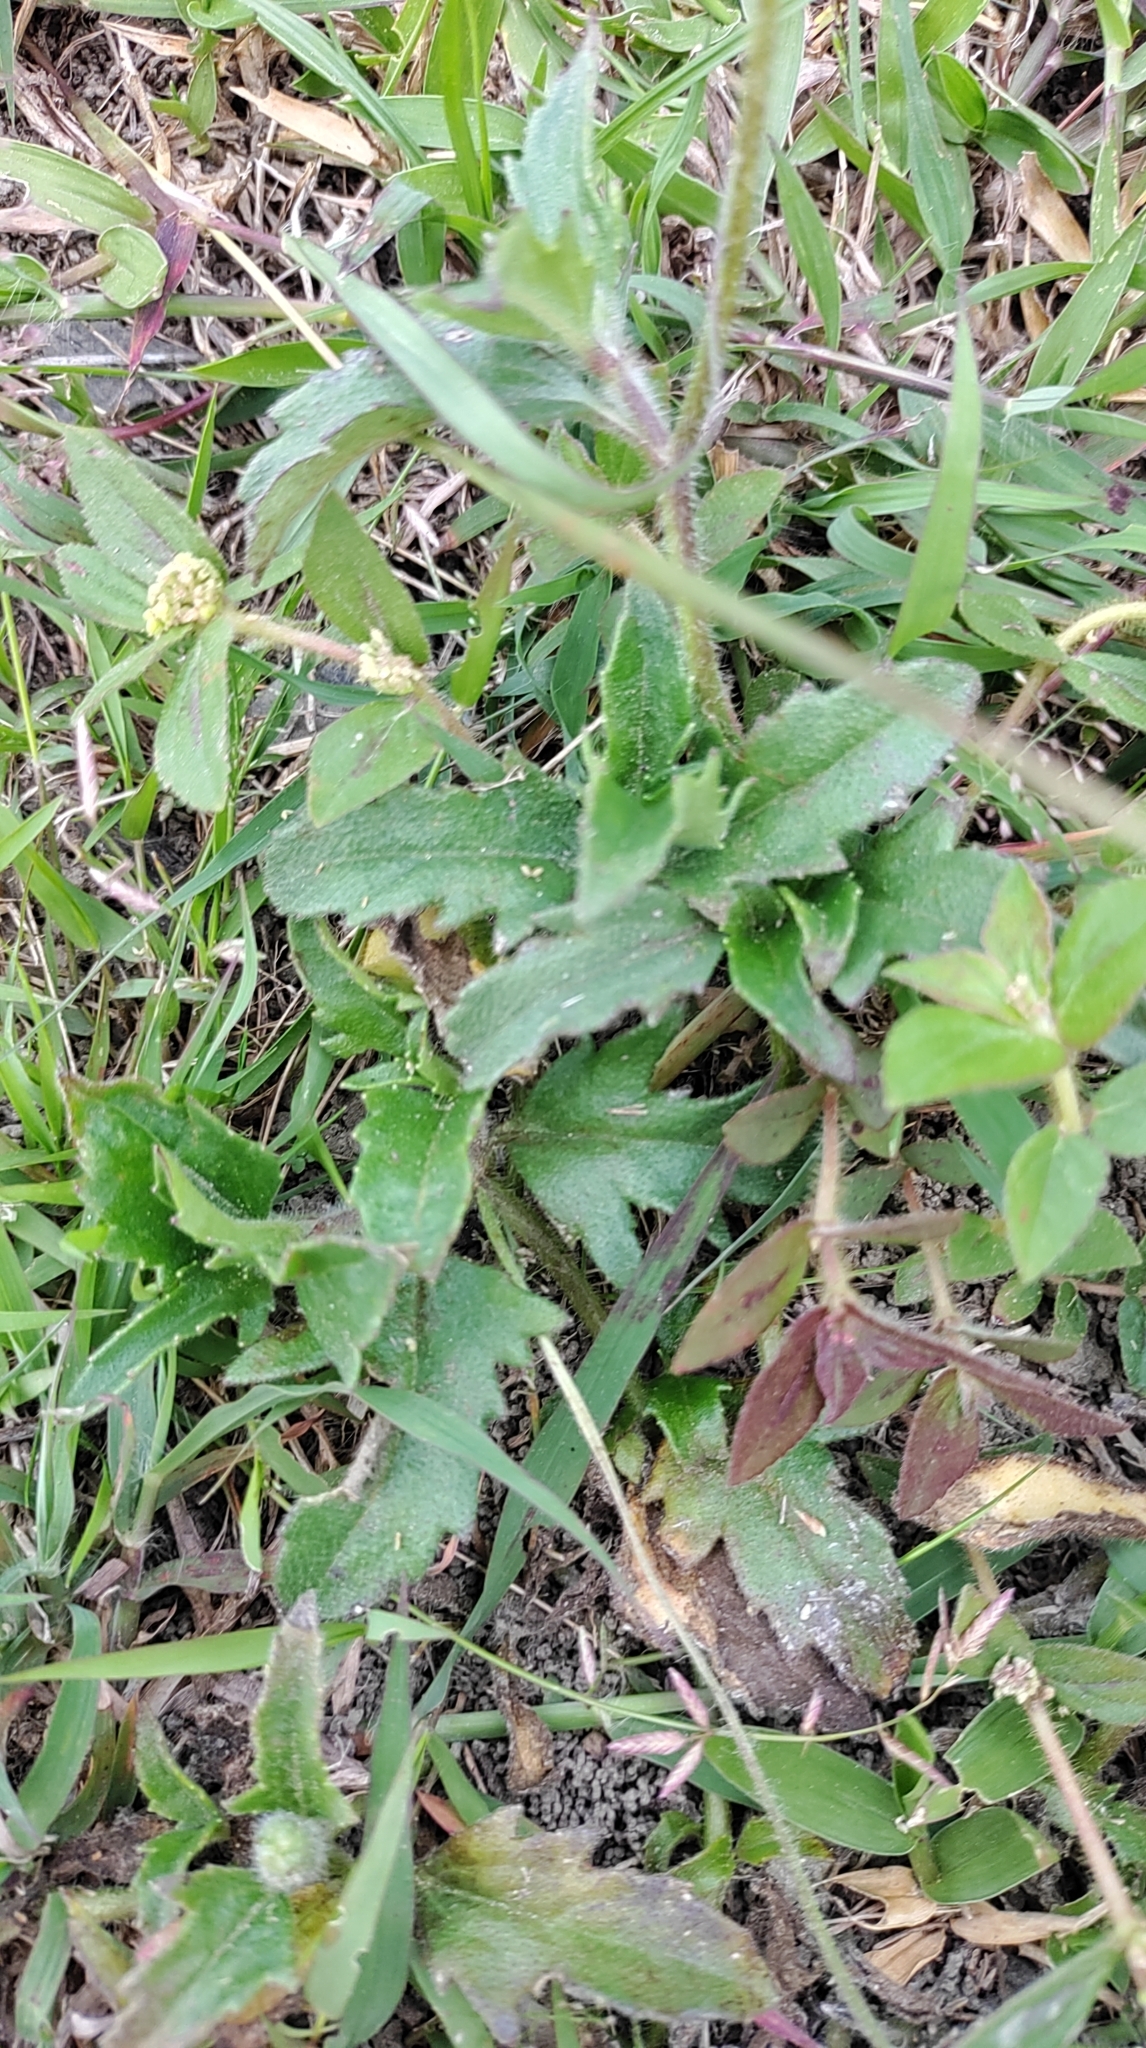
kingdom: Plantae
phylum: Tracheophyta
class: Magnoliopsida
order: Asterales
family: Asteraceae
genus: Tridax
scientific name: Tridax procumbens
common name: Coatbuttons
